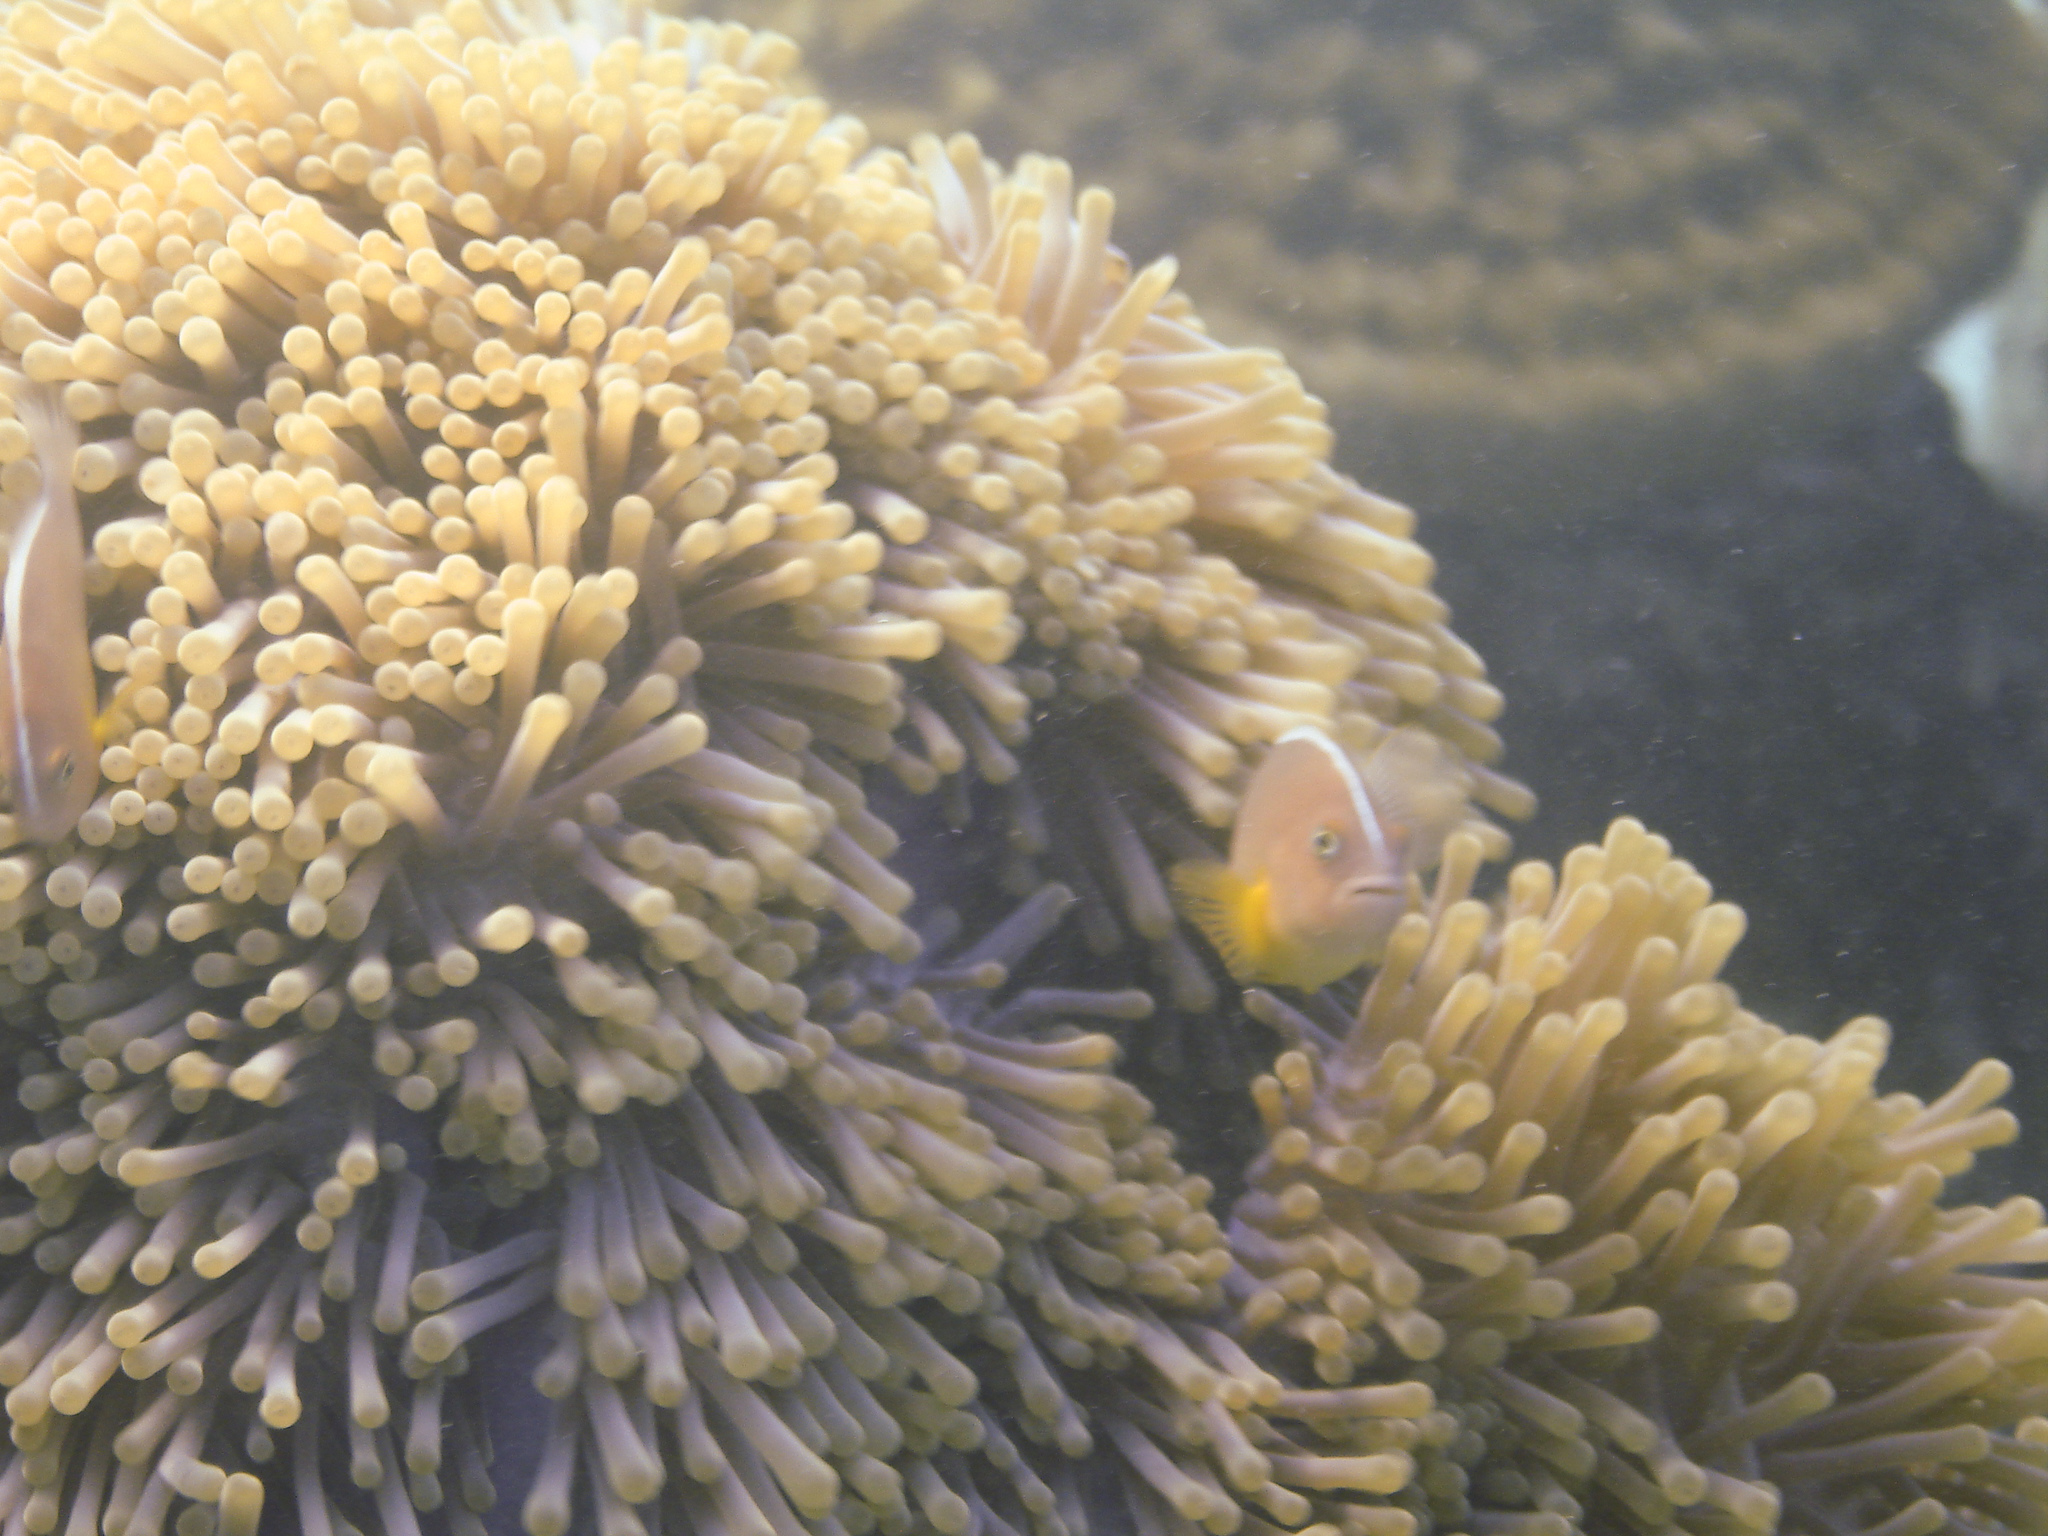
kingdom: Animalia
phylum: Chordata
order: Perciformes
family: Pomacentridae
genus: Amphiprion
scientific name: Amphiprion akallopisos
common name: Skunk clownfish
